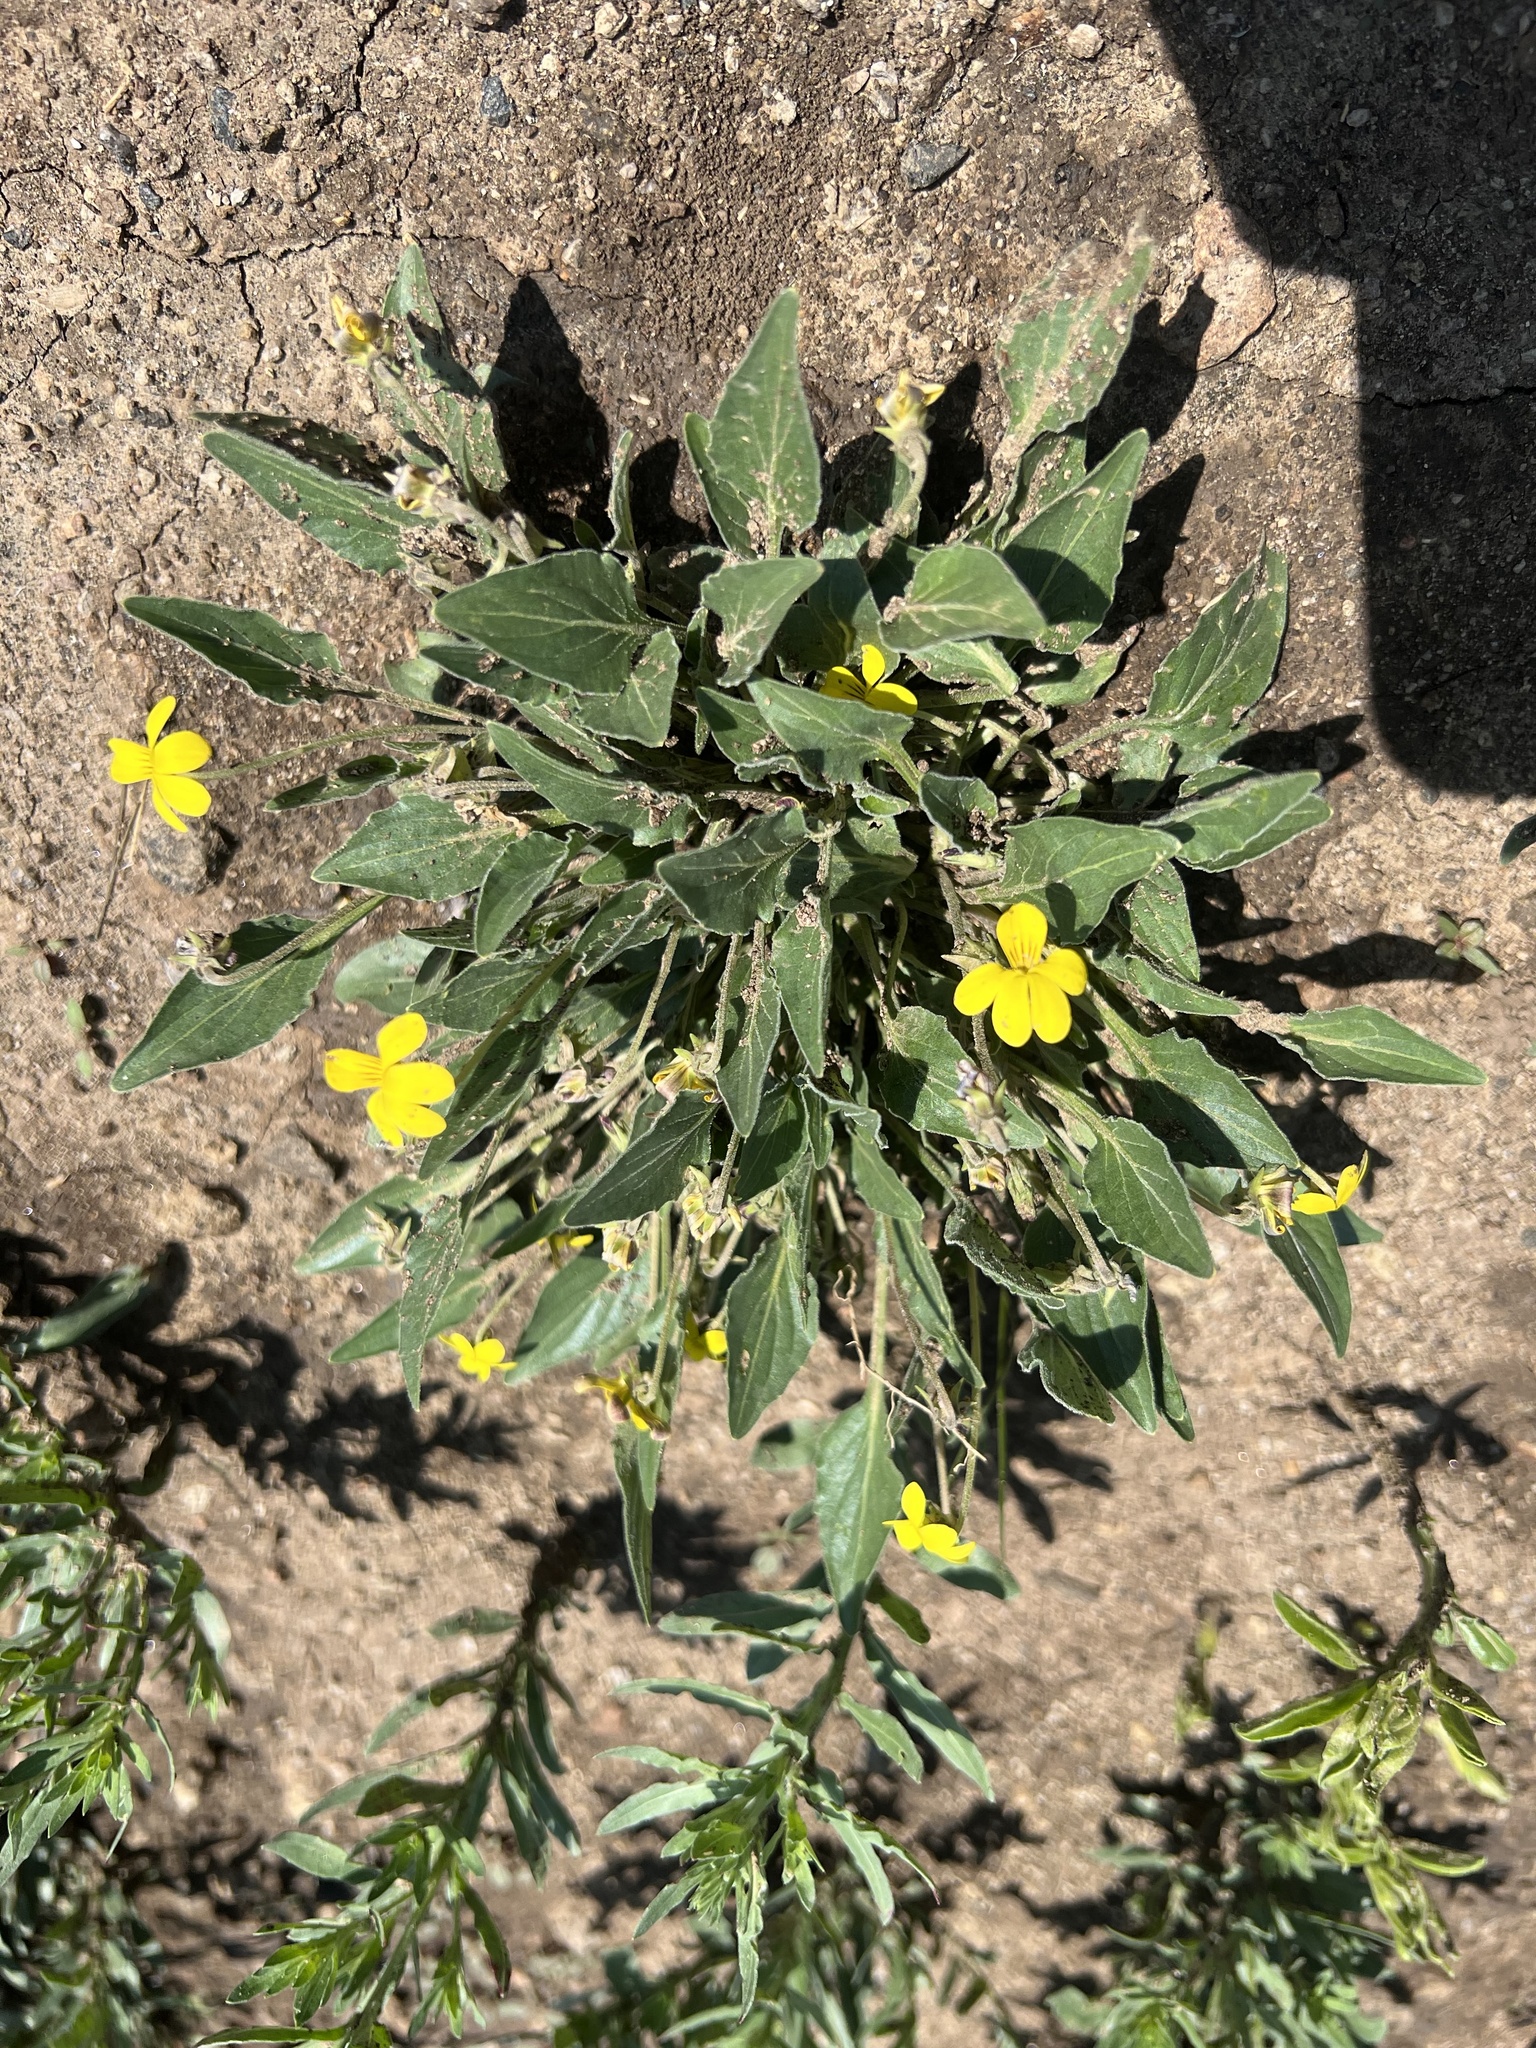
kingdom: Plantae
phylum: Tracheophyta
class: Magnoliopsida
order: Malpighiales
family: Violaceae
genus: Viola
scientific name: Viola nuttallii
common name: Yellow prairie violet
